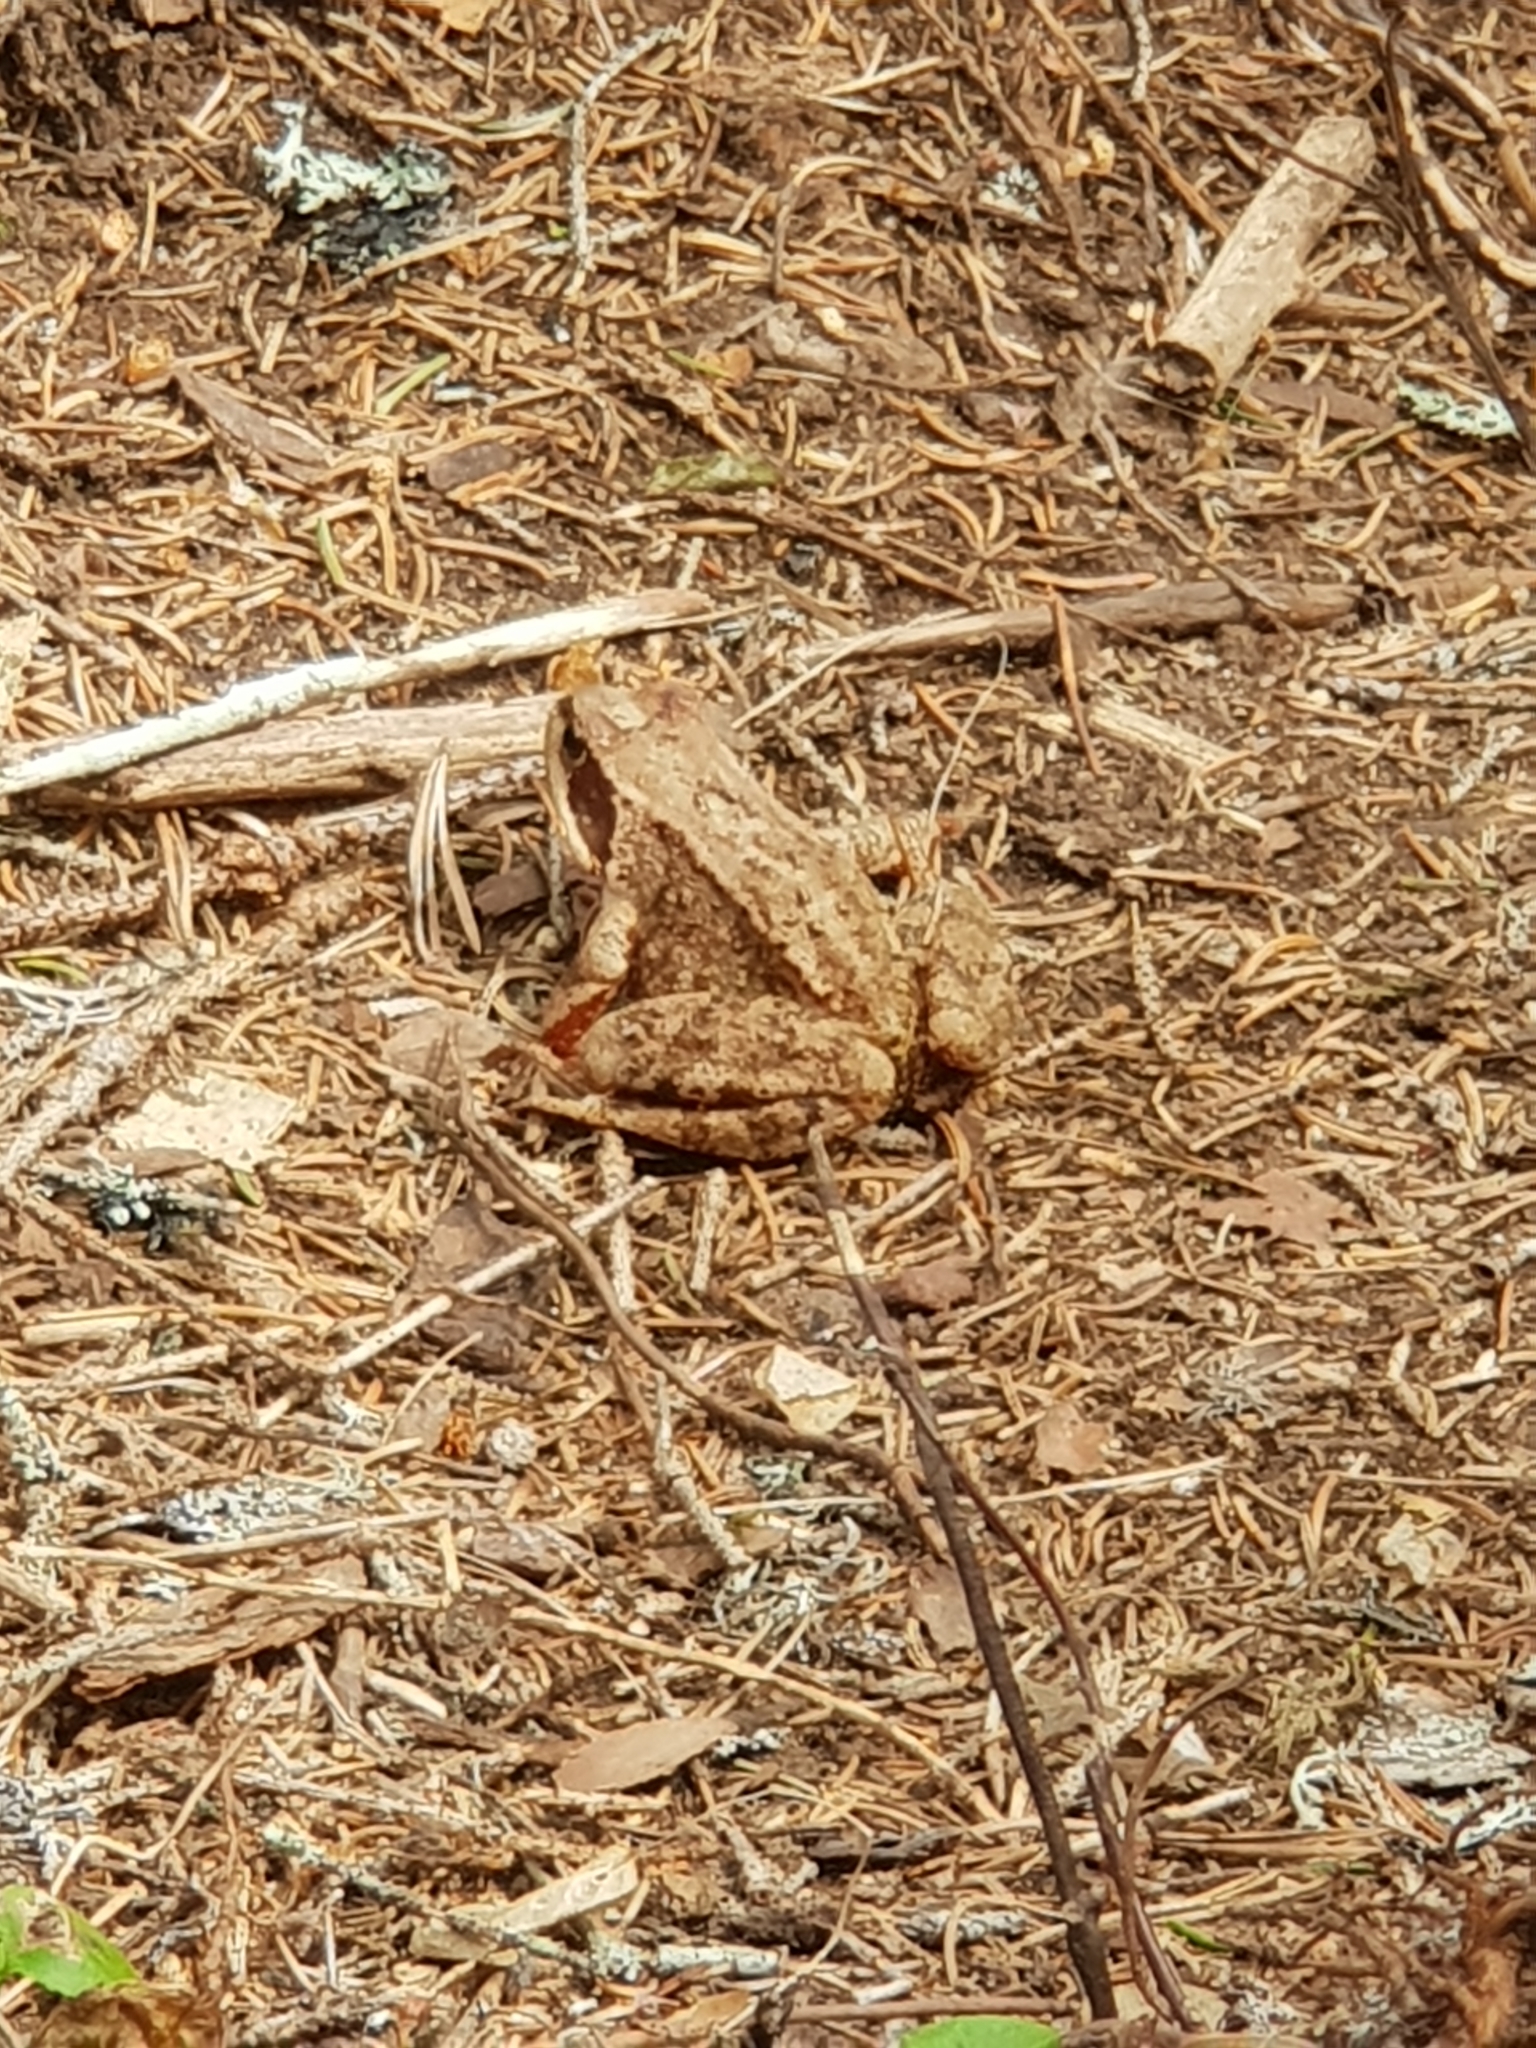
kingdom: Animalia
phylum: Chordata
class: Amphibia
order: Anura
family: Ranidae
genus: Rana
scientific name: Rana temporaria
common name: Common frog
